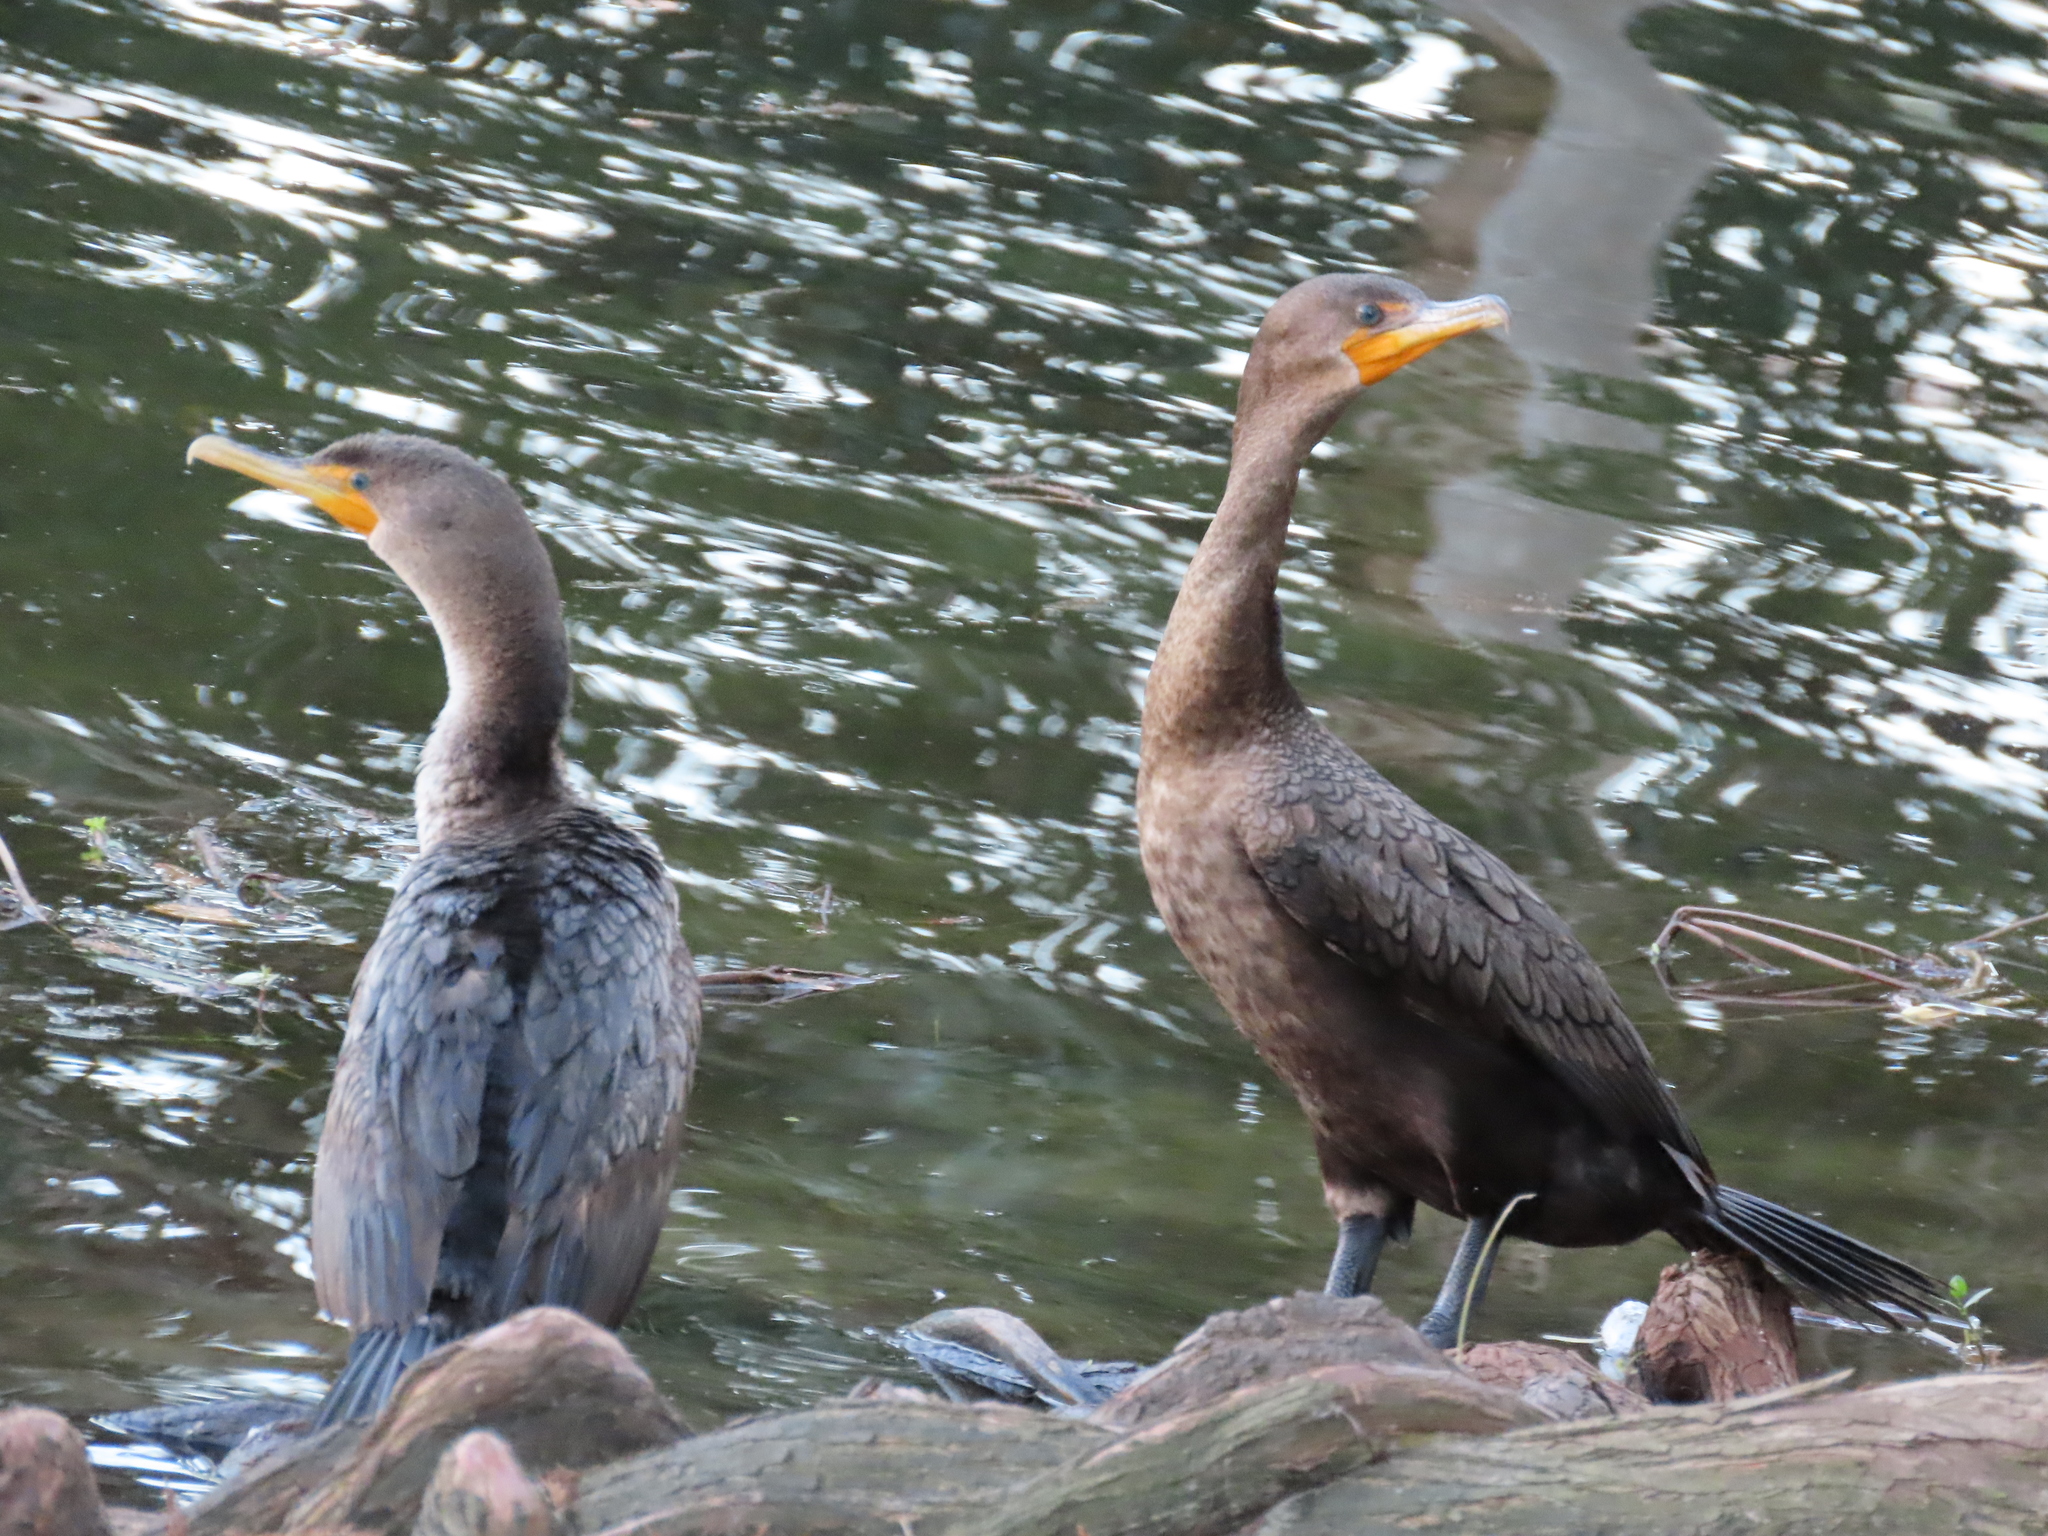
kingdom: Animalia
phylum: Chordata
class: Aves
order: Suliformes
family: Phalacrocoracidae
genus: Phalacrocorax
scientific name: Phalacrocorax auritus
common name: Double-crested cormorant
